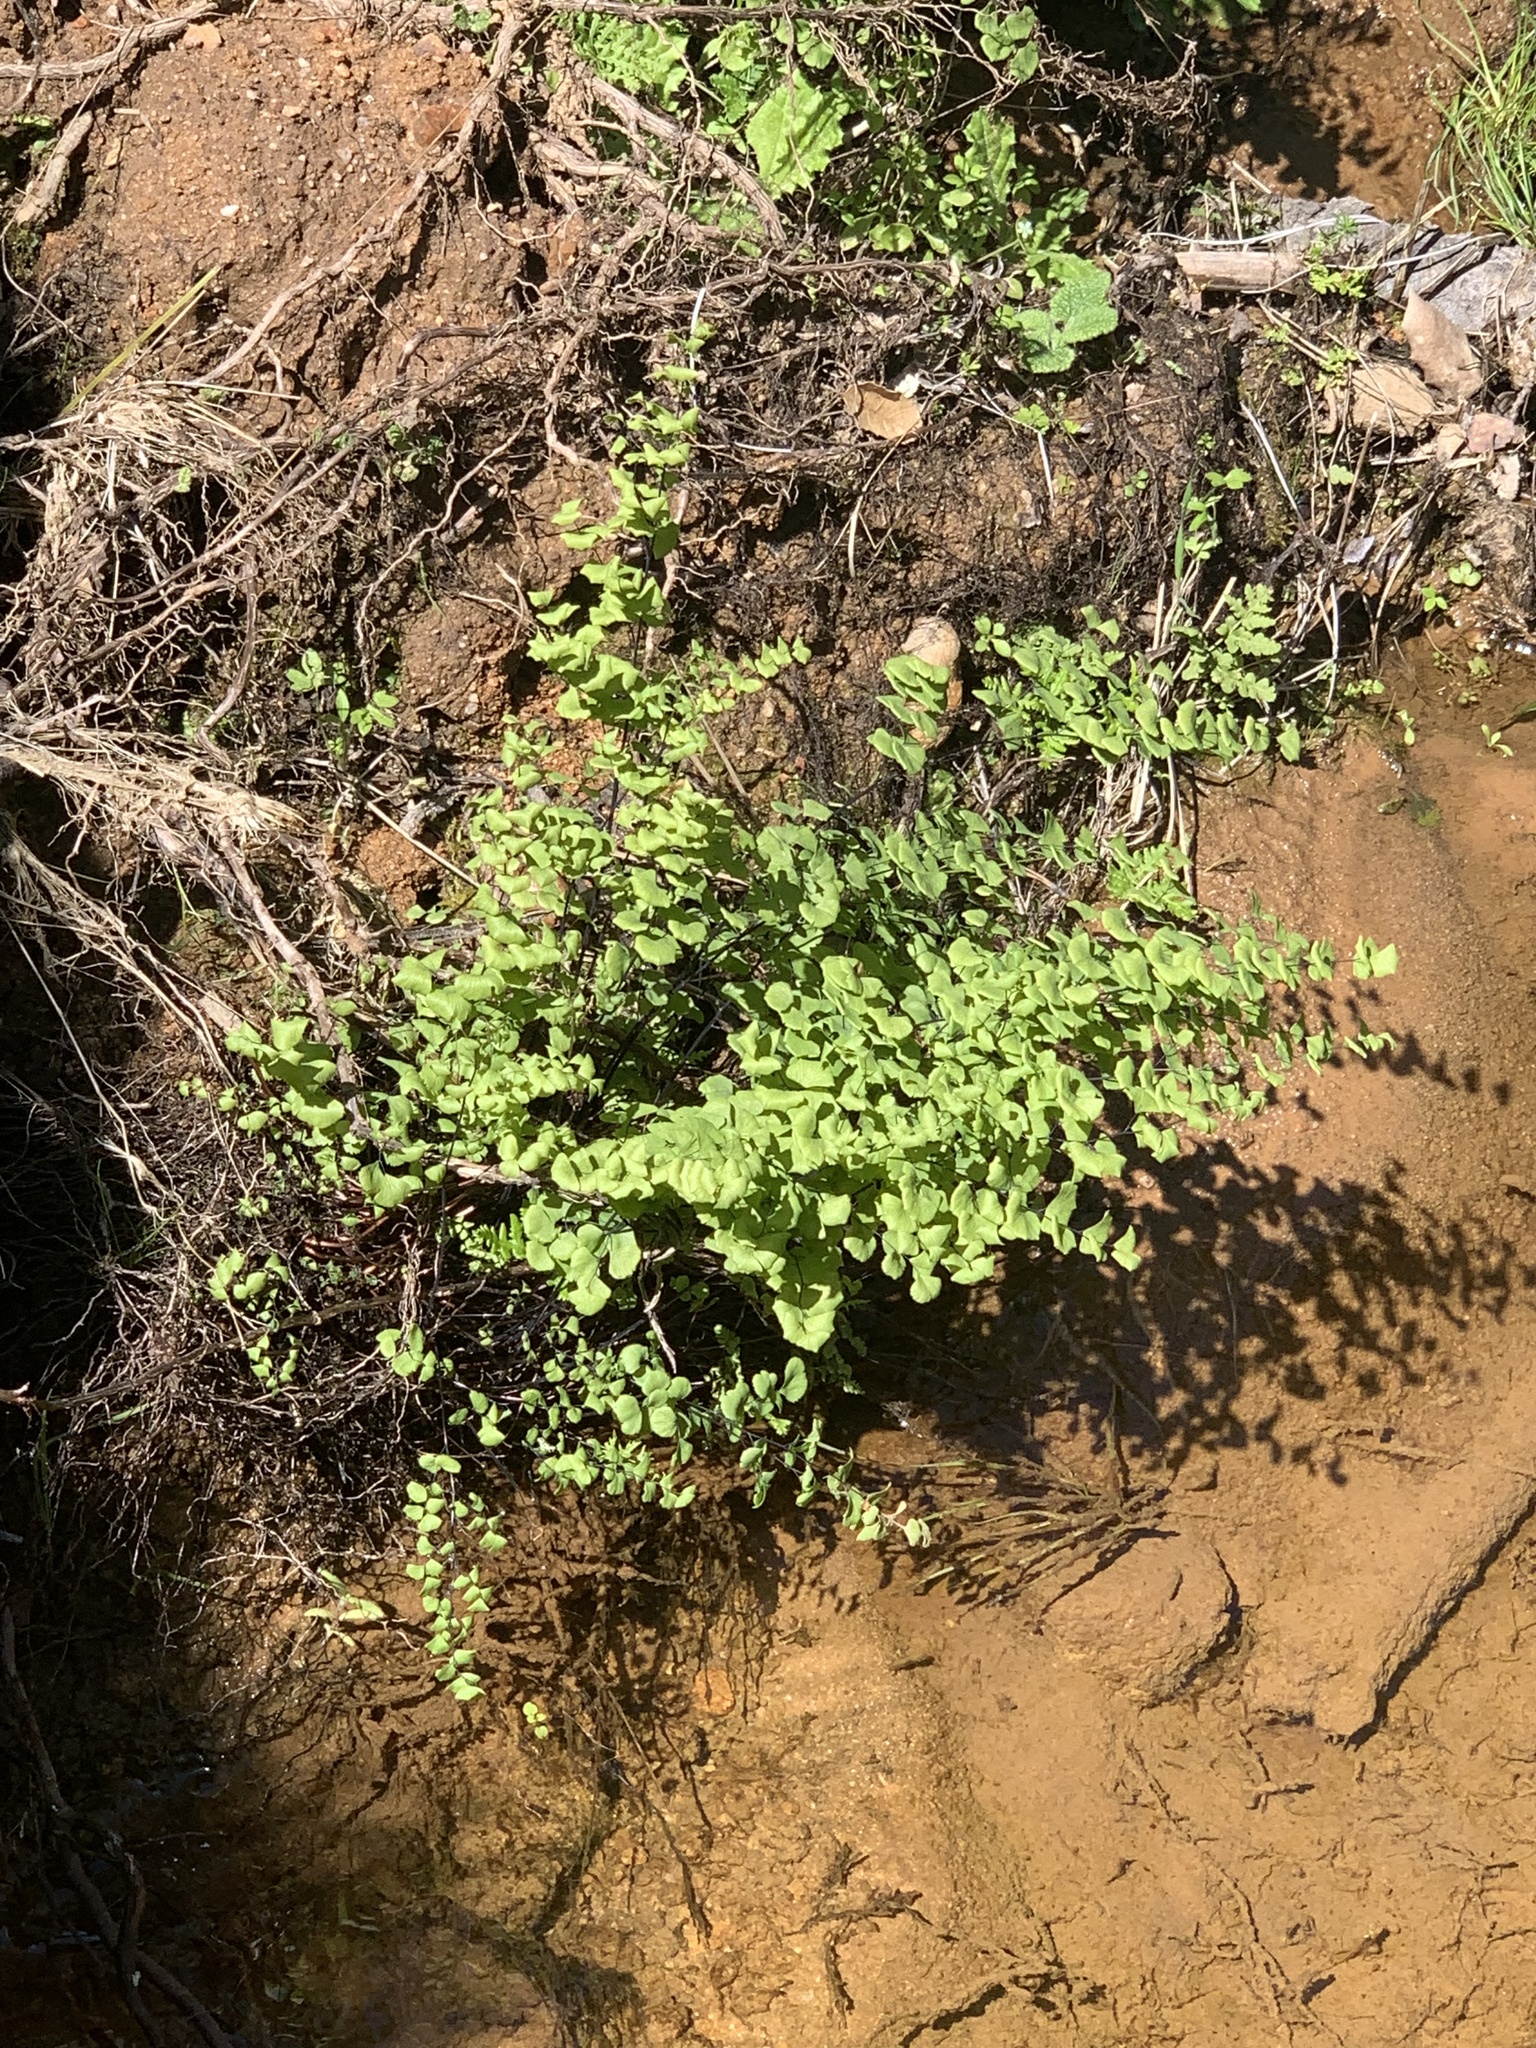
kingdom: Plantae
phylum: Tracheophyta
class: Polypodiopsida
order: Polypodiales
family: Pteridaceae
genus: Adiantum
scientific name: Adiantum jordanii
